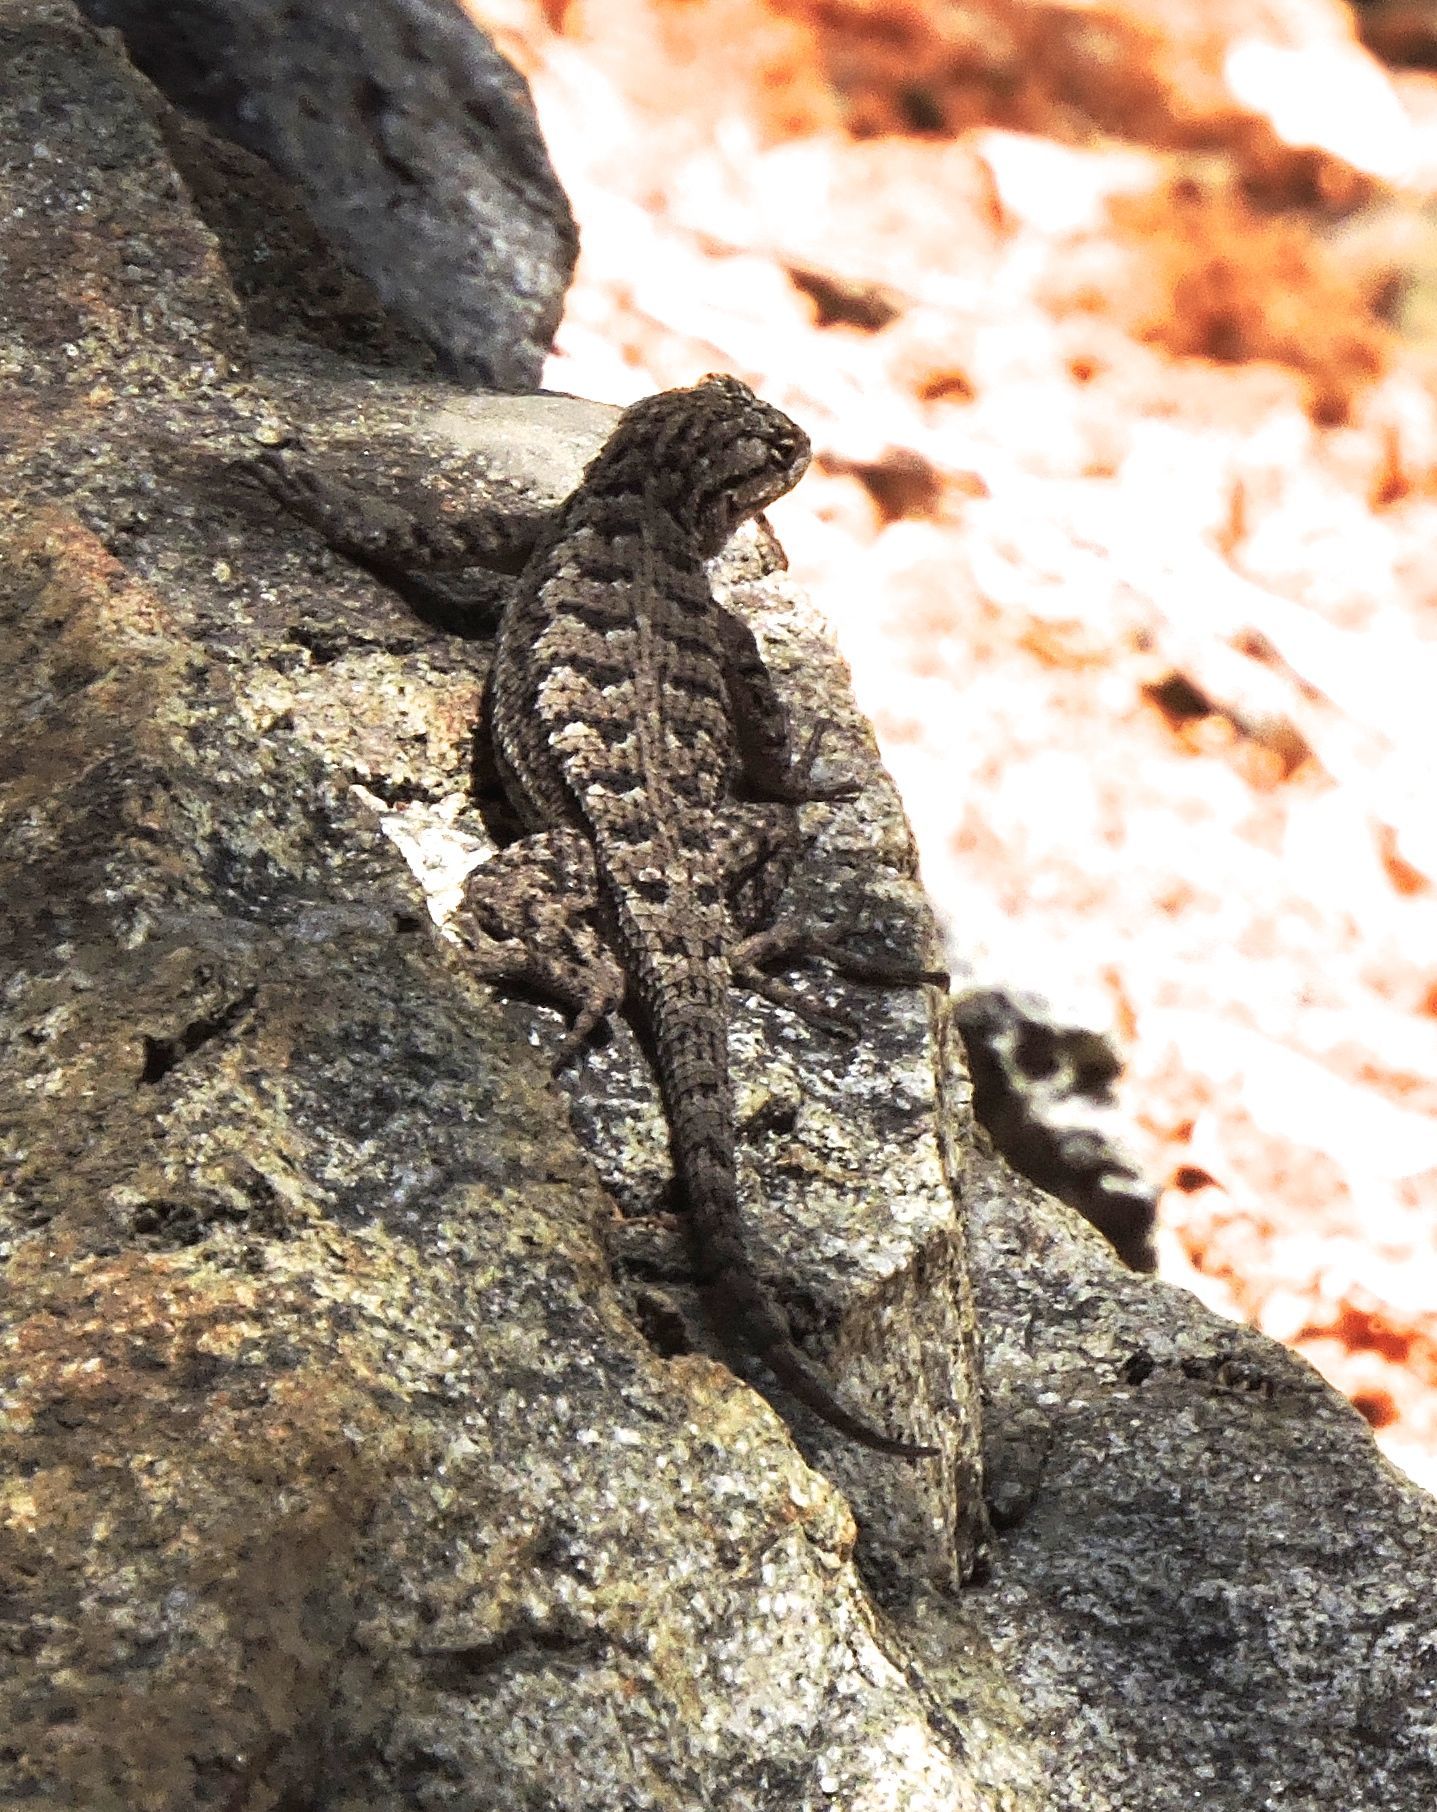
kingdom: Animalia
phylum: Chordata
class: Squamata
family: Phrynosomatidae
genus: Sceloporus
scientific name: Sceloporus occidentalis
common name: Western fence lizard
